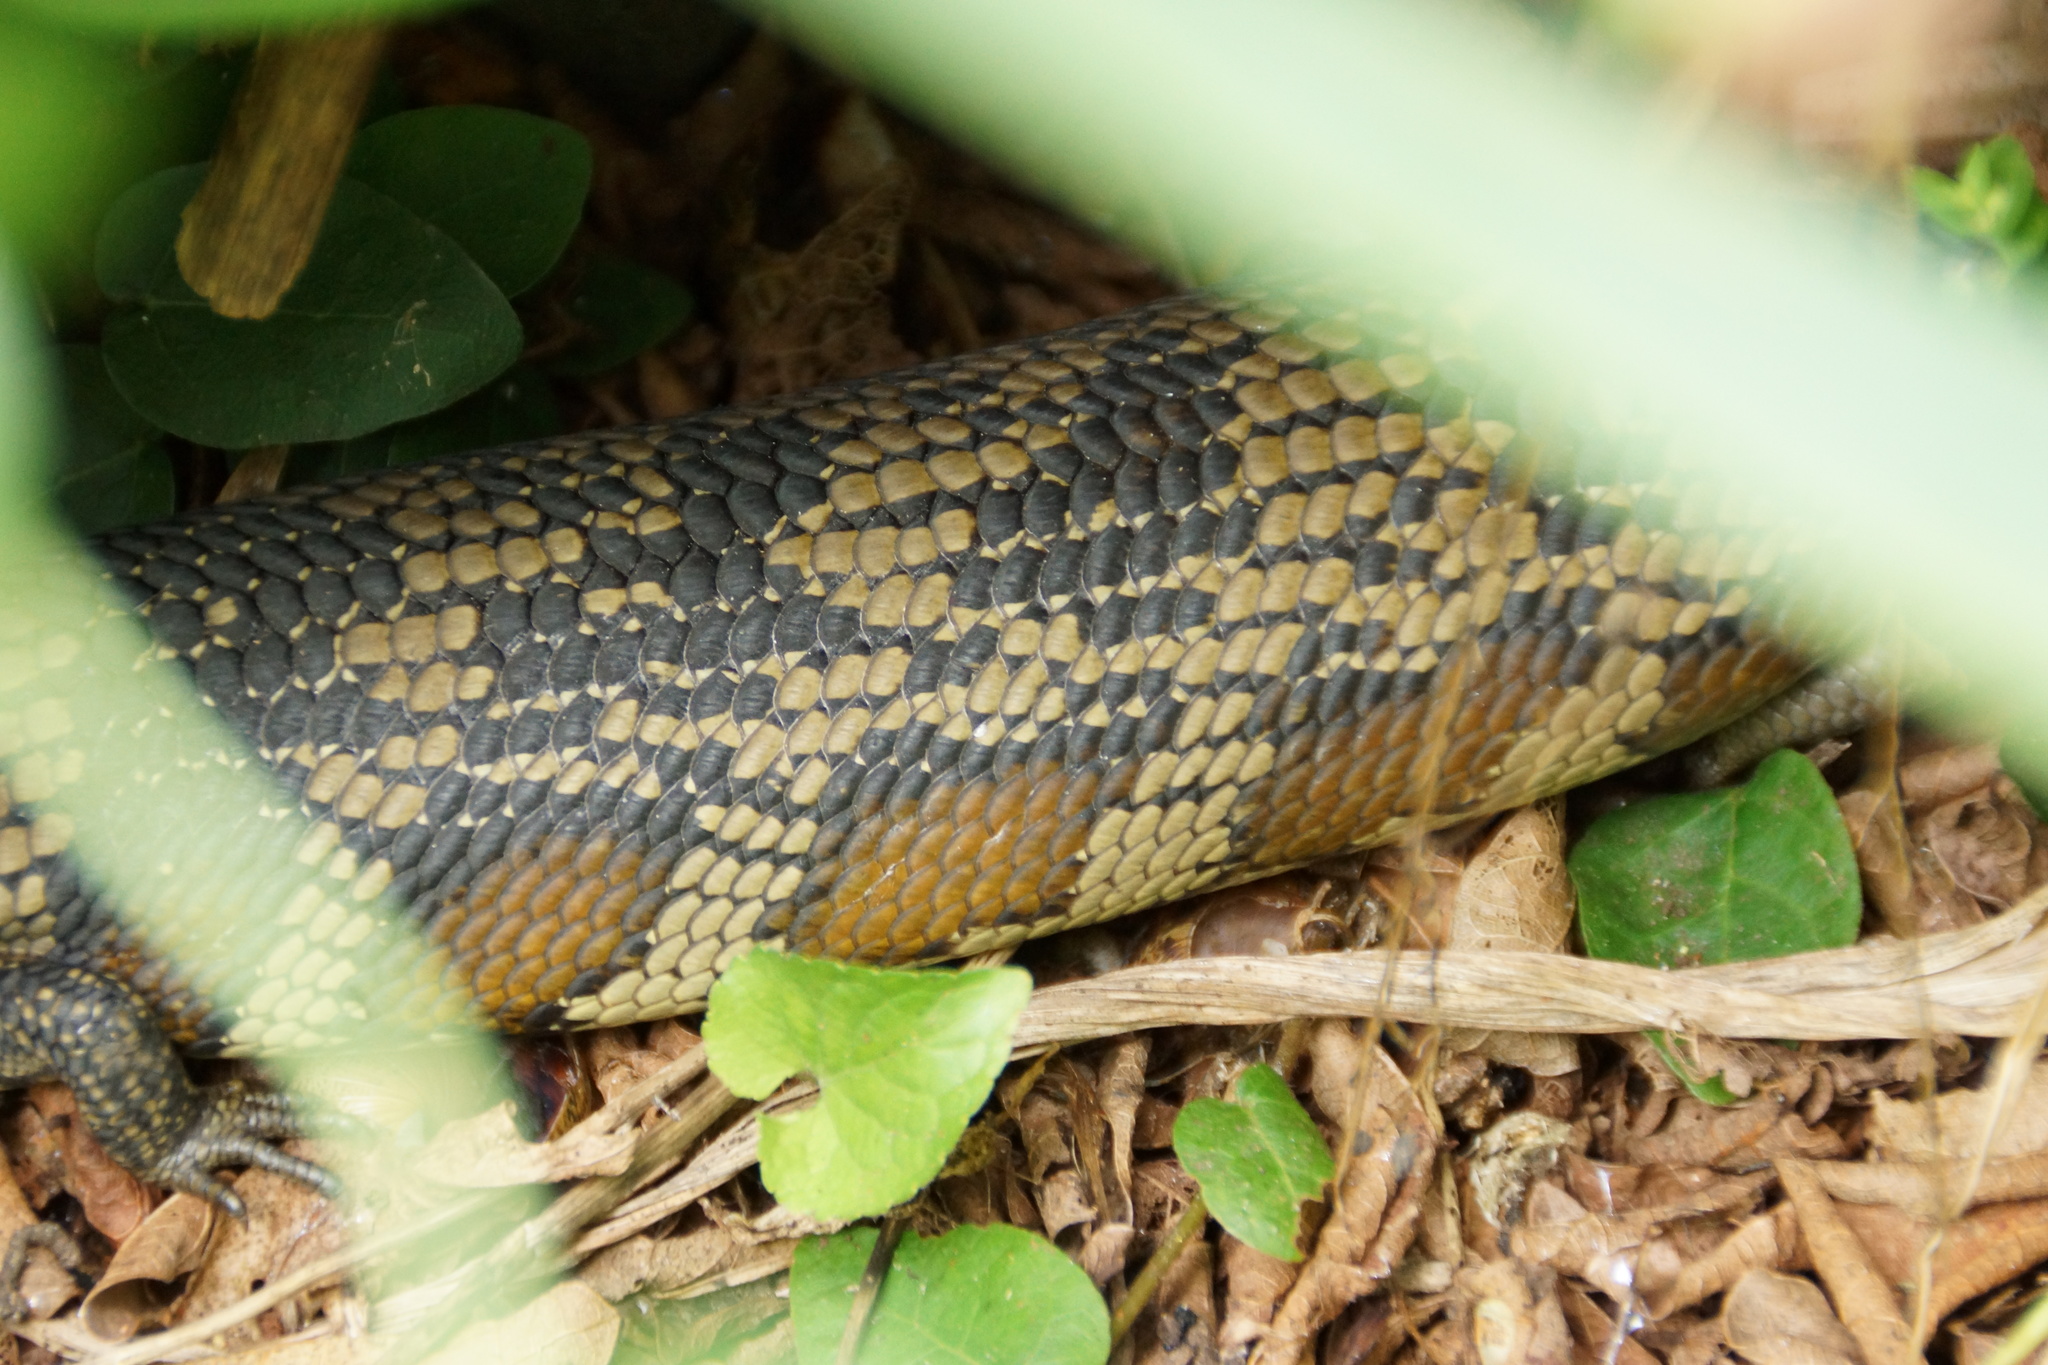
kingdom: Animalia
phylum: Chordata
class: Squamata
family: Scincidae
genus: Tiliqua
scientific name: Tiliqua scincoides
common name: Common bluetongue
